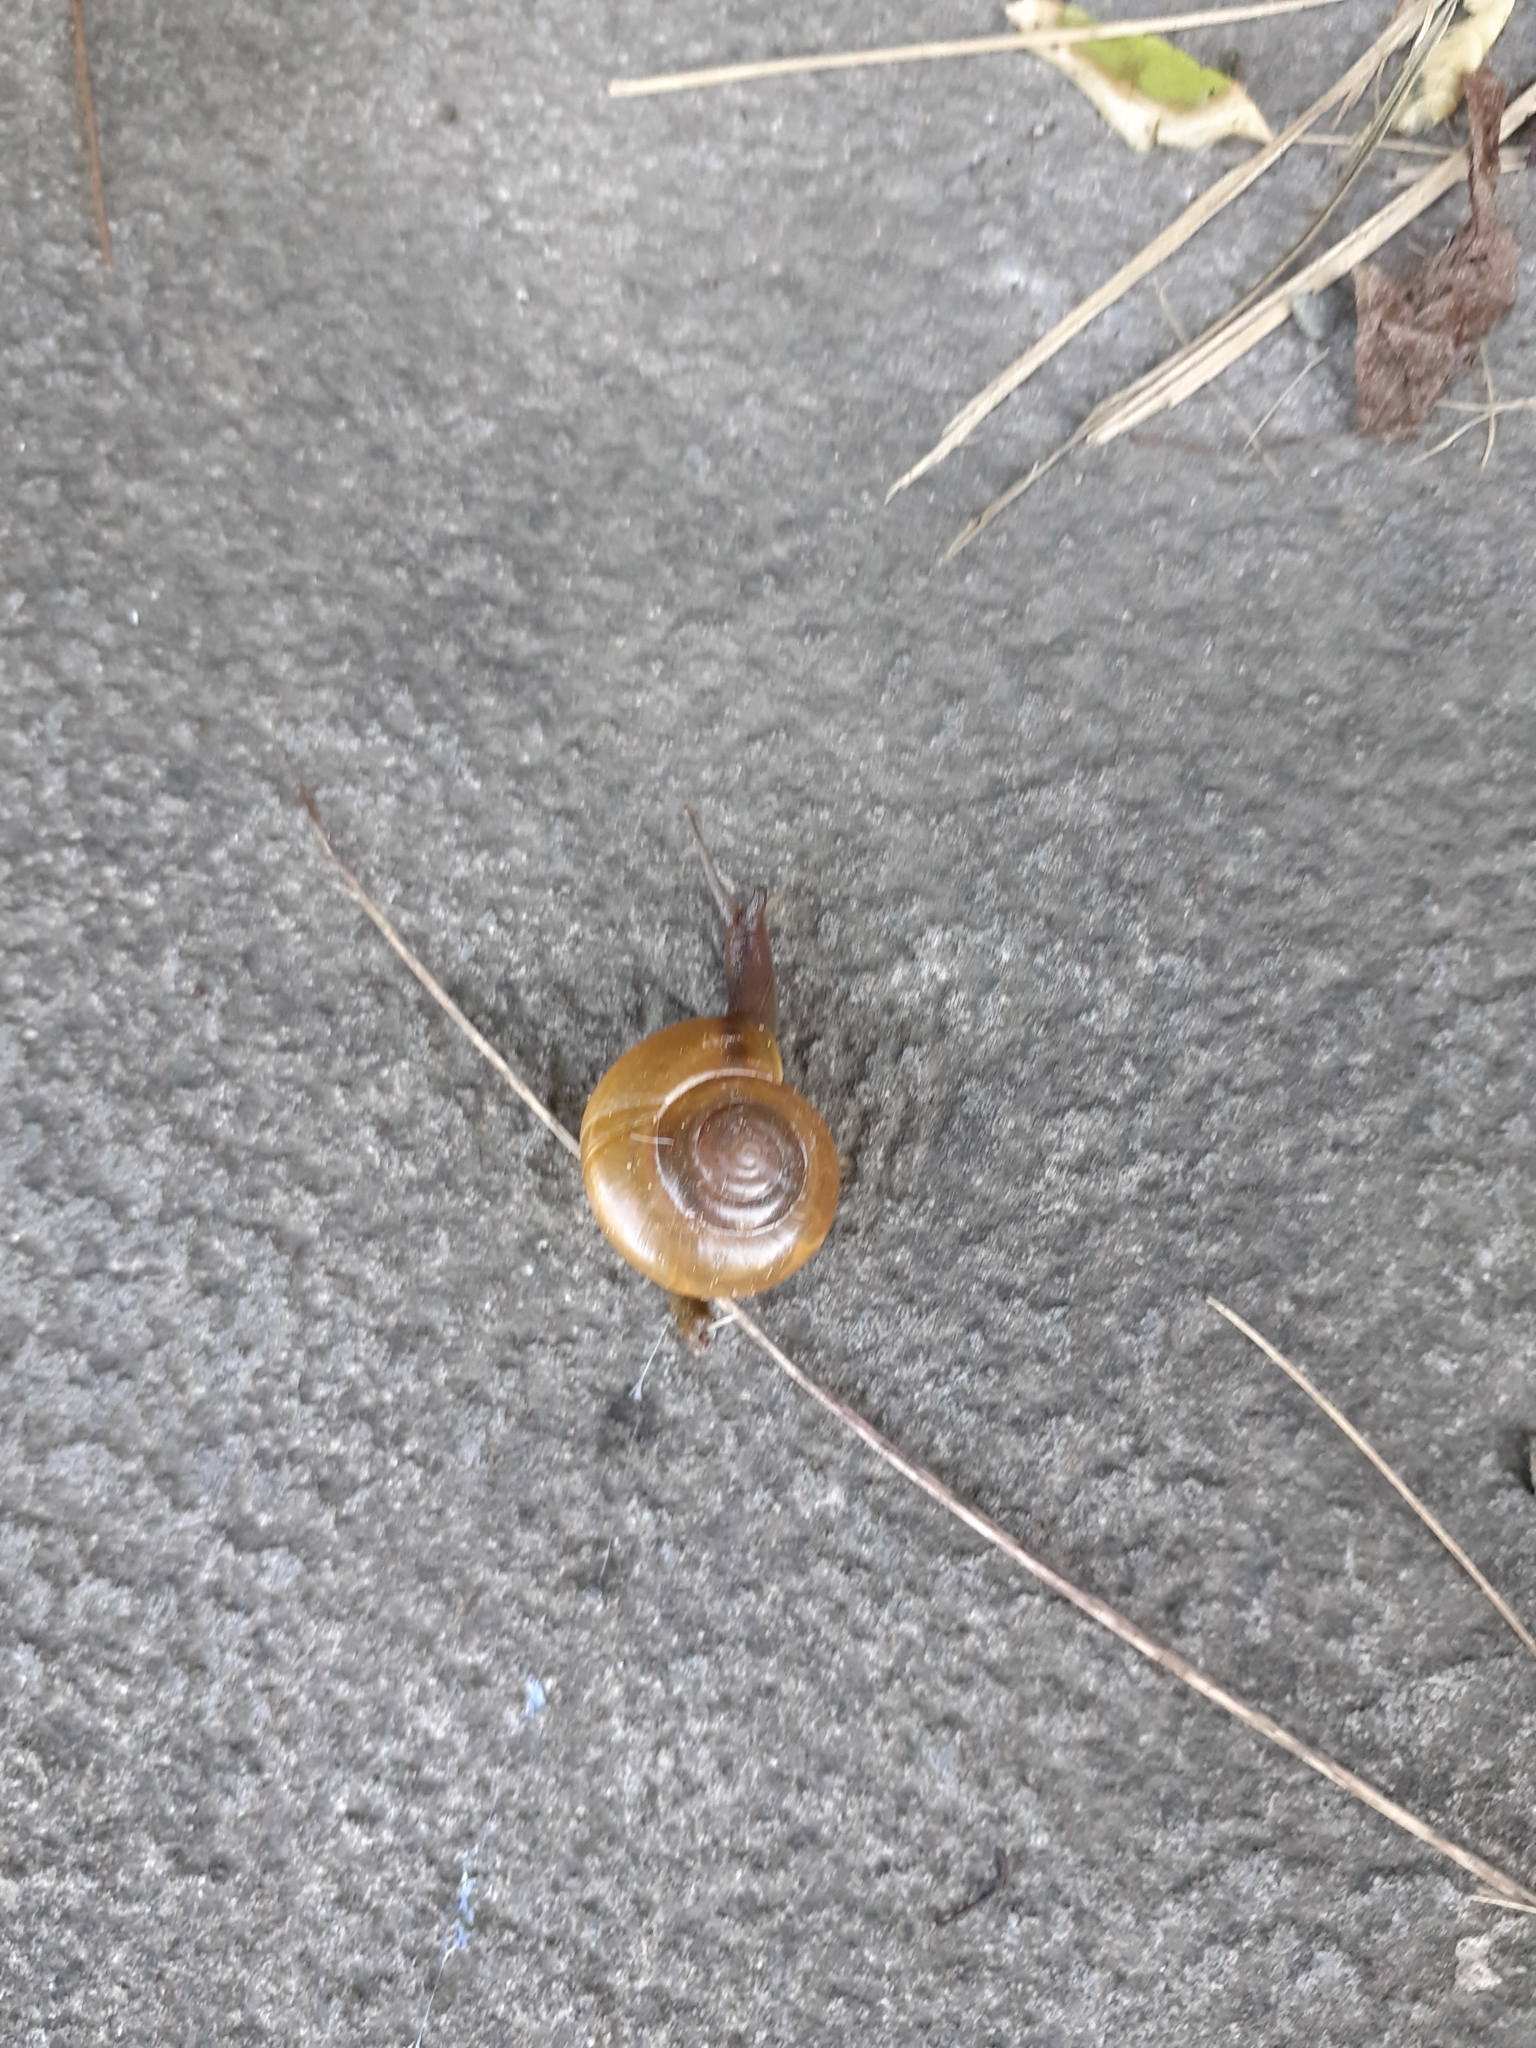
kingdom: Animalia
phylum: Mollusca
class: Gastropoda
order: Stylommatophora
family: Ariophantidae
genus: Macrochlamys
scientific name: Macrochlamys hippocastaneum
